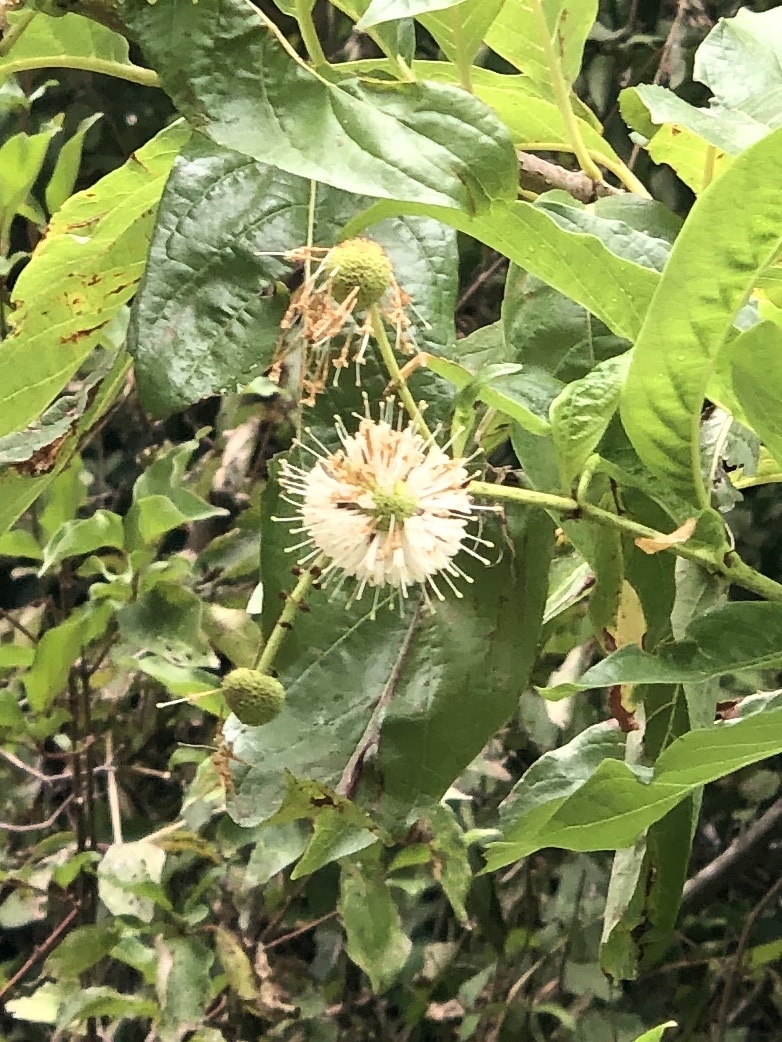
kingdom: Plantae
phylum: Tracheophyta
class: Magnoliopsida
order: Gentianales
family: Rubiaceae
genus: Cephalanthus
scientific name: Cephalanthus occidentalis
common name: Button-willow
